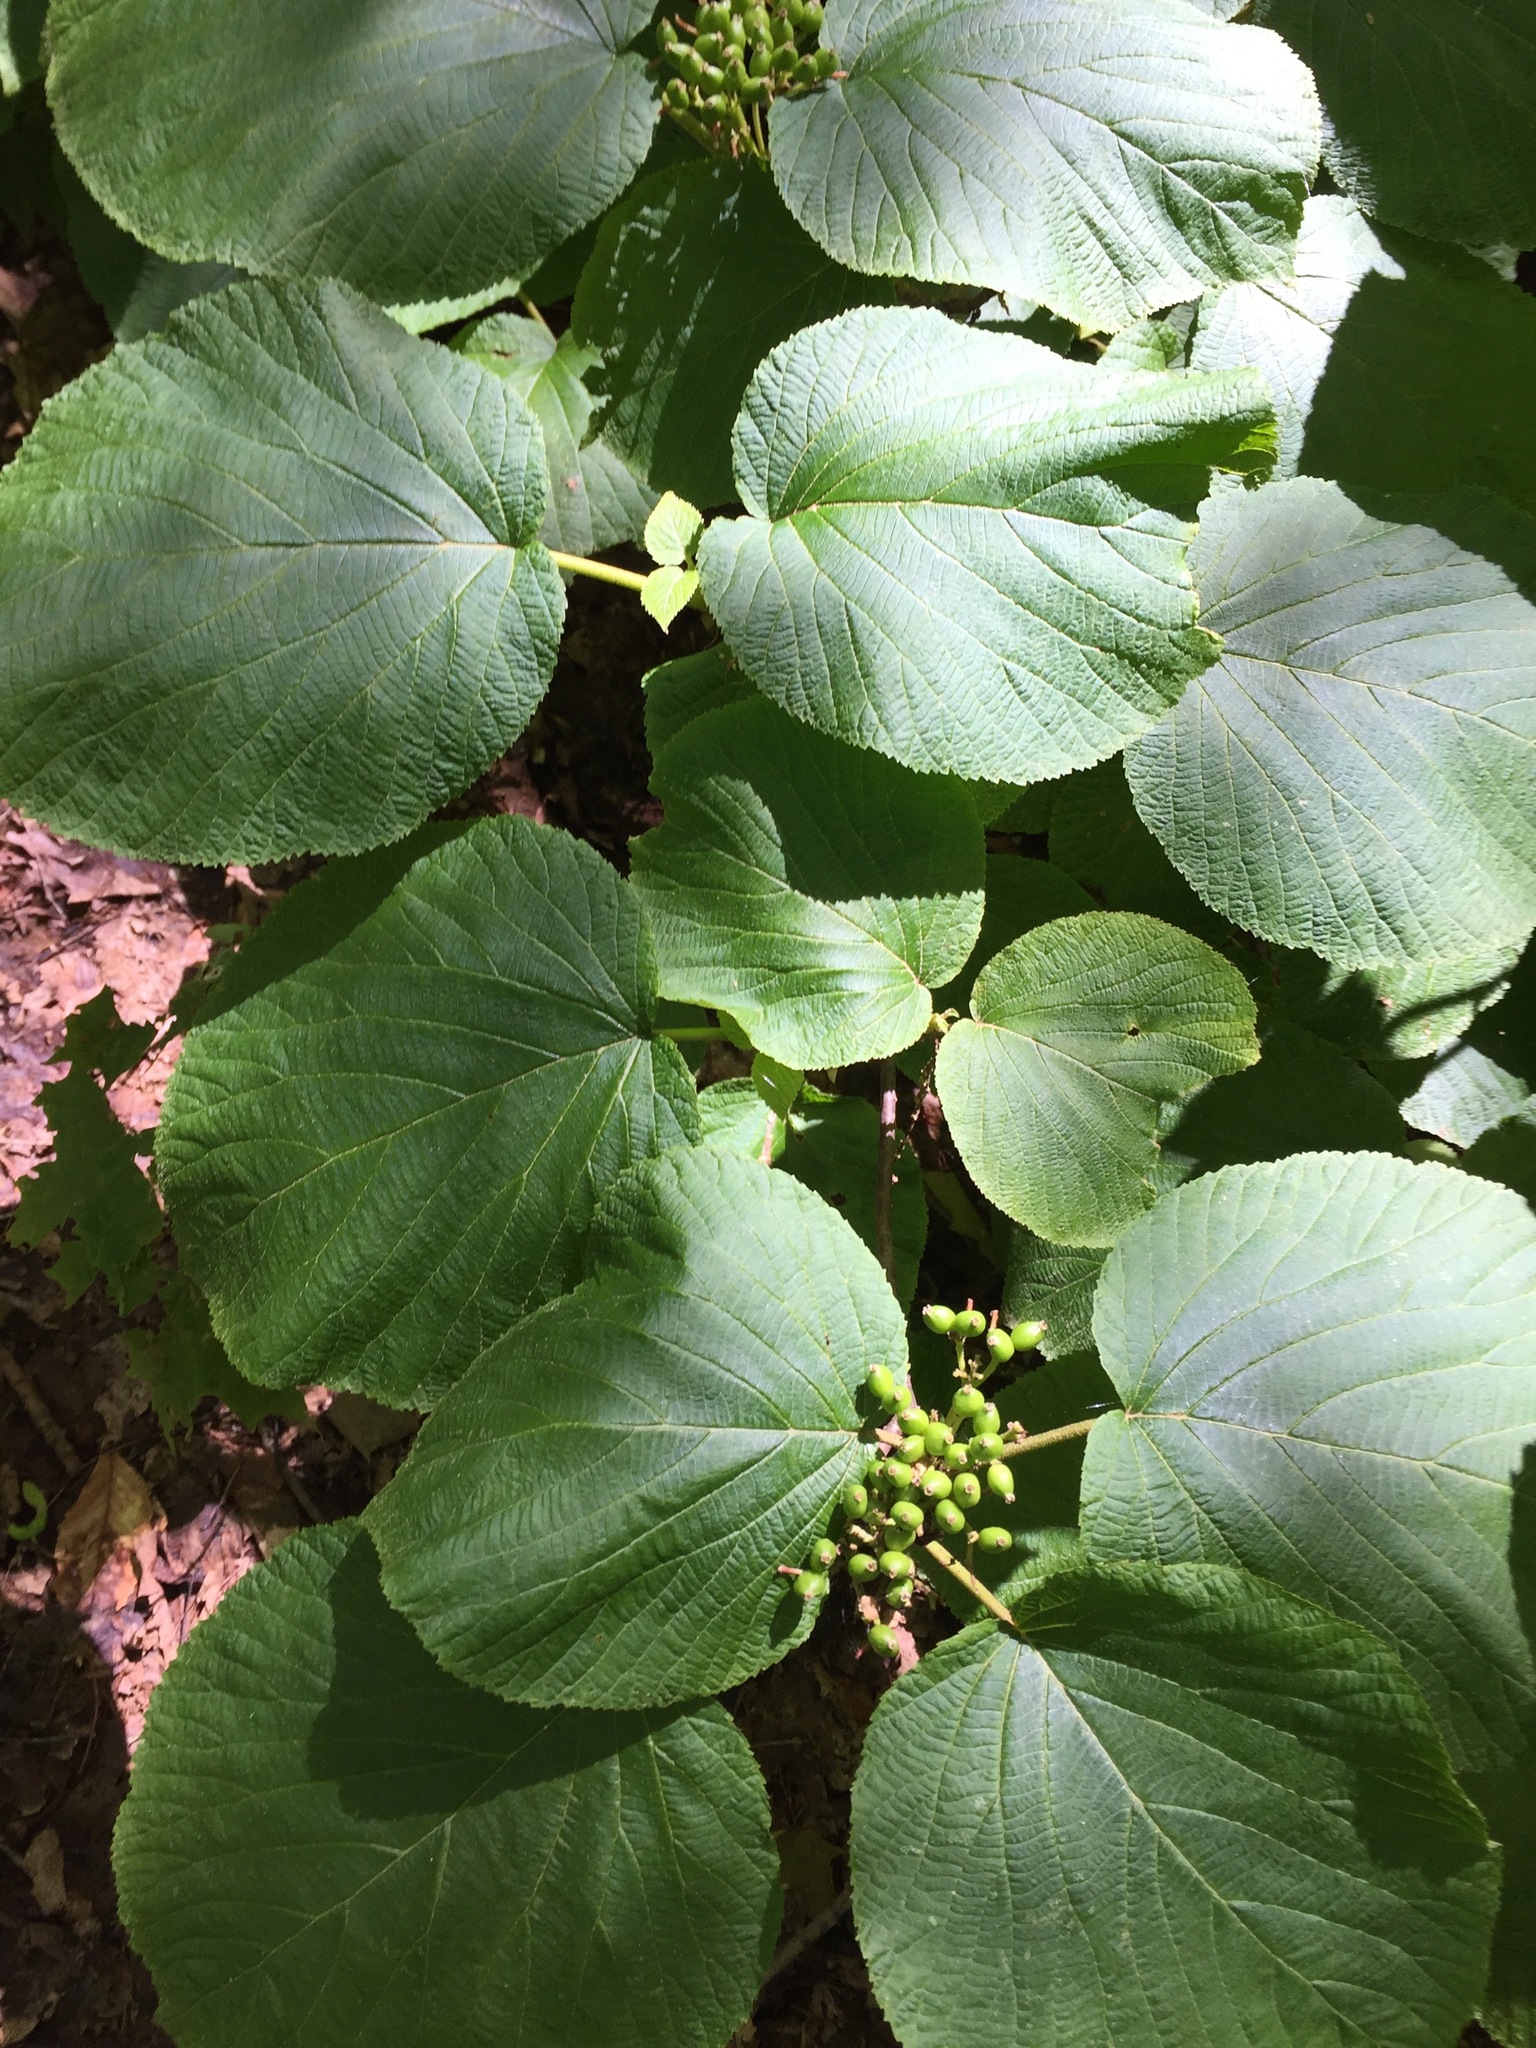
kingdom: Plantae
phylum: Tracheophyta
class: Magnoliopsida
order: Dipsacales
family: Viburnaceae
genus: Viburnum
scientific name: Viburnum lantanoides
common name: Hobblebush
